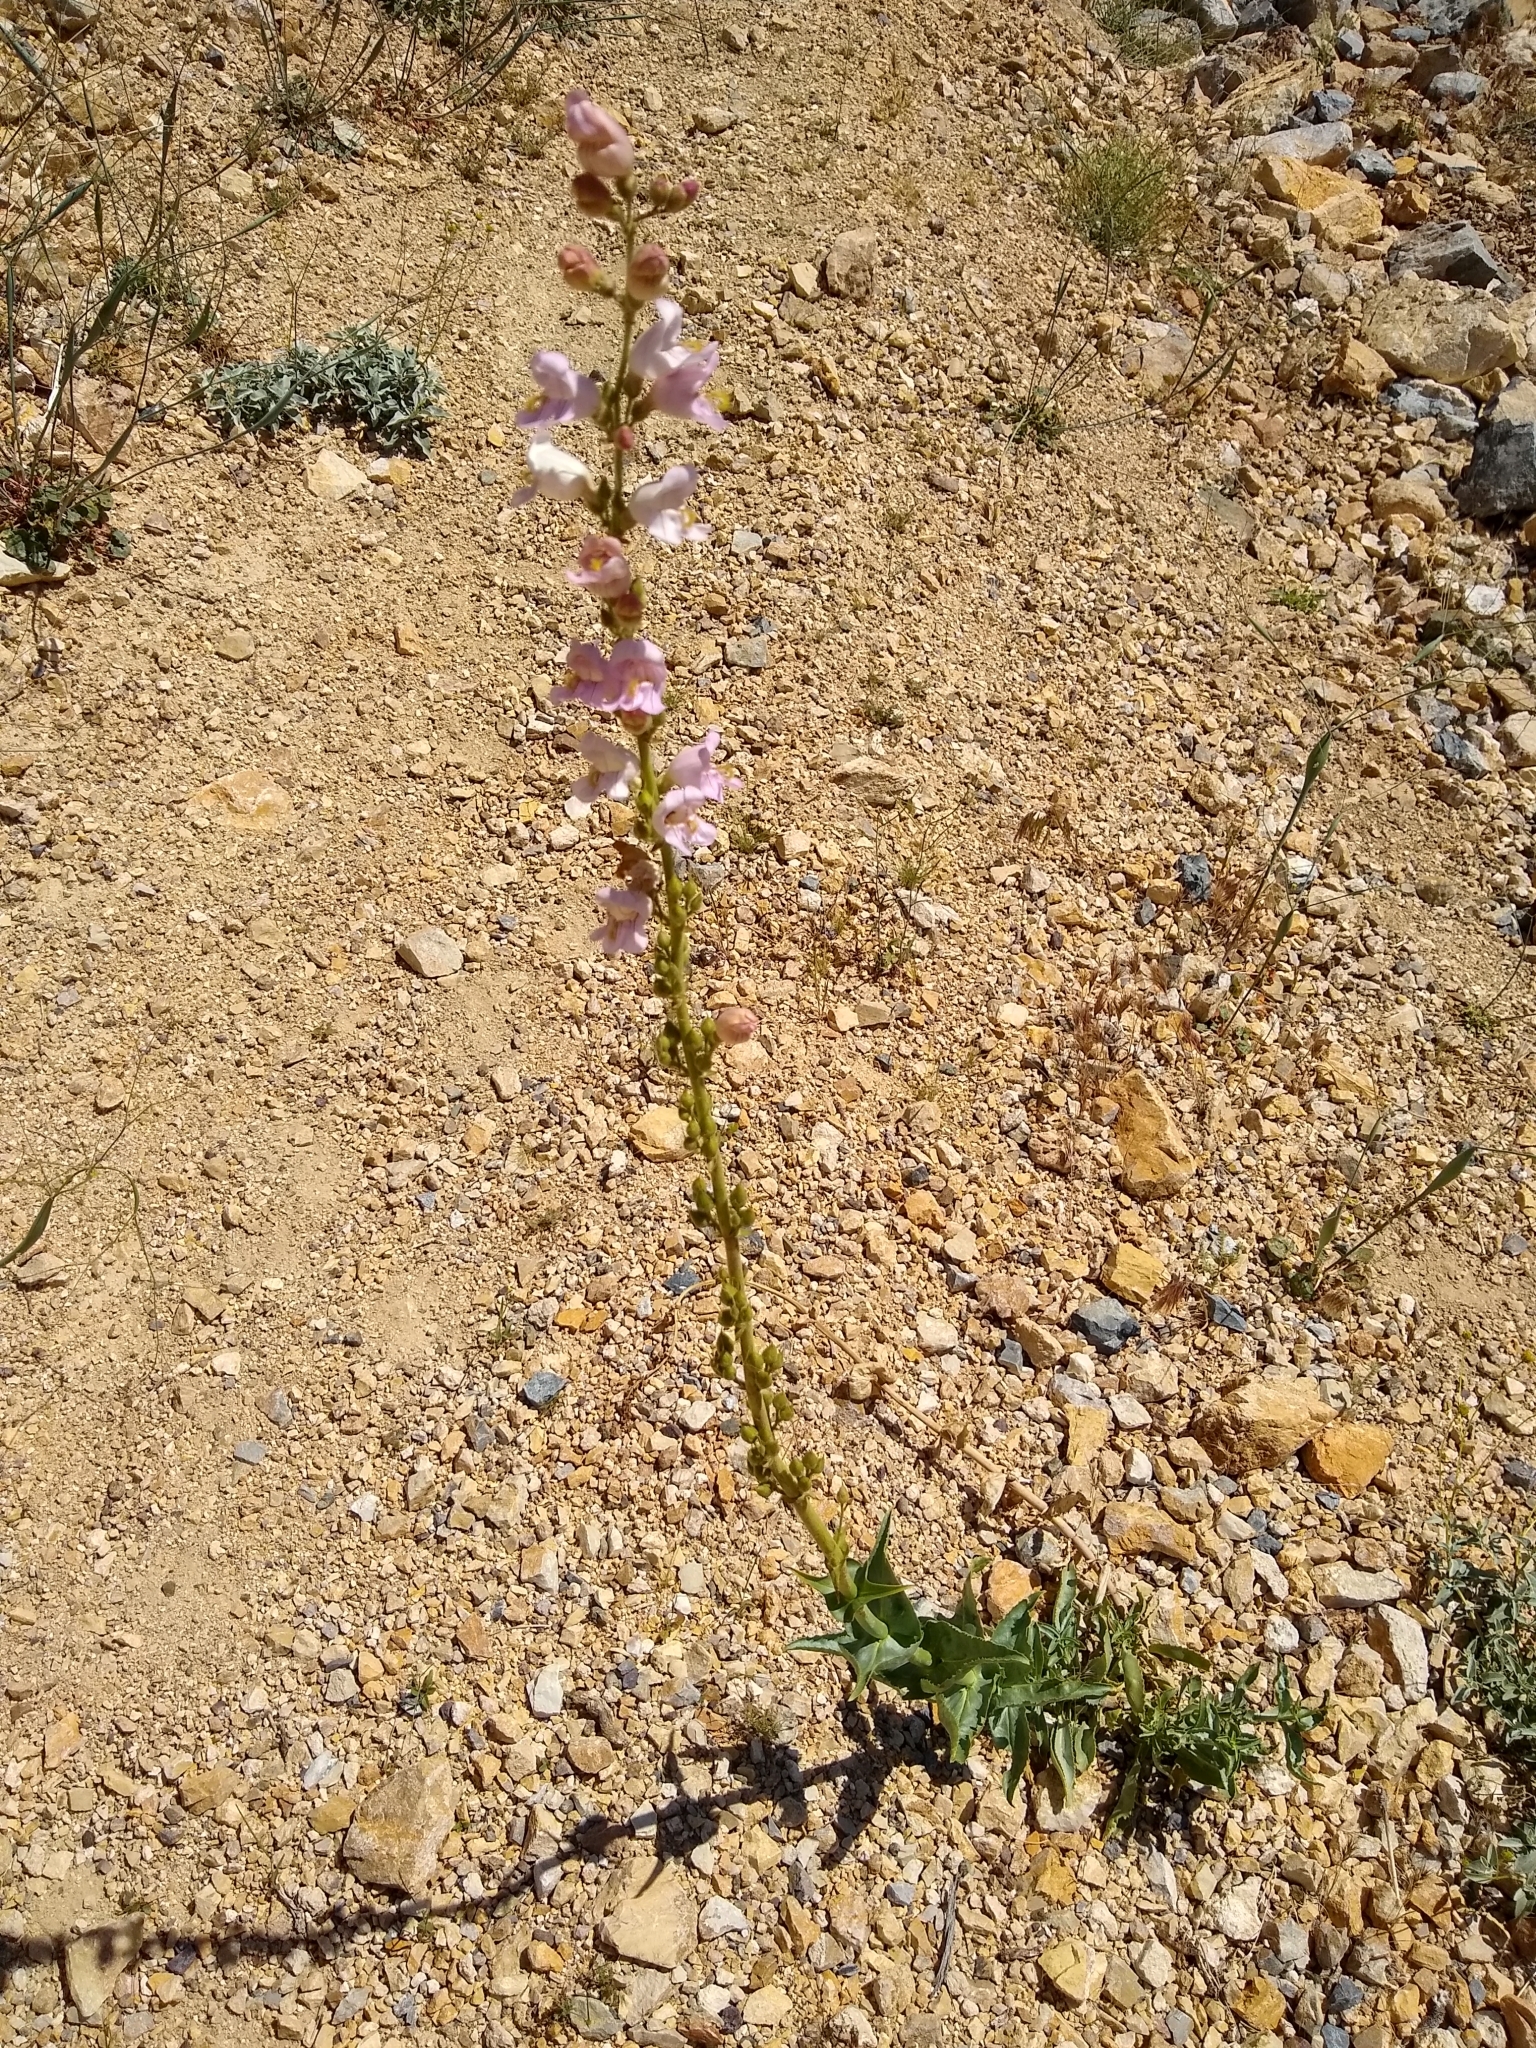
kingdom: Plantae
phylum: Tracheophyta
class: Magnoliopsida
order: Lamiales
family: Plantaginaceae
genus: Penstemon
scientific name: Penstemon palmeri
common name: Palmer penstemon
